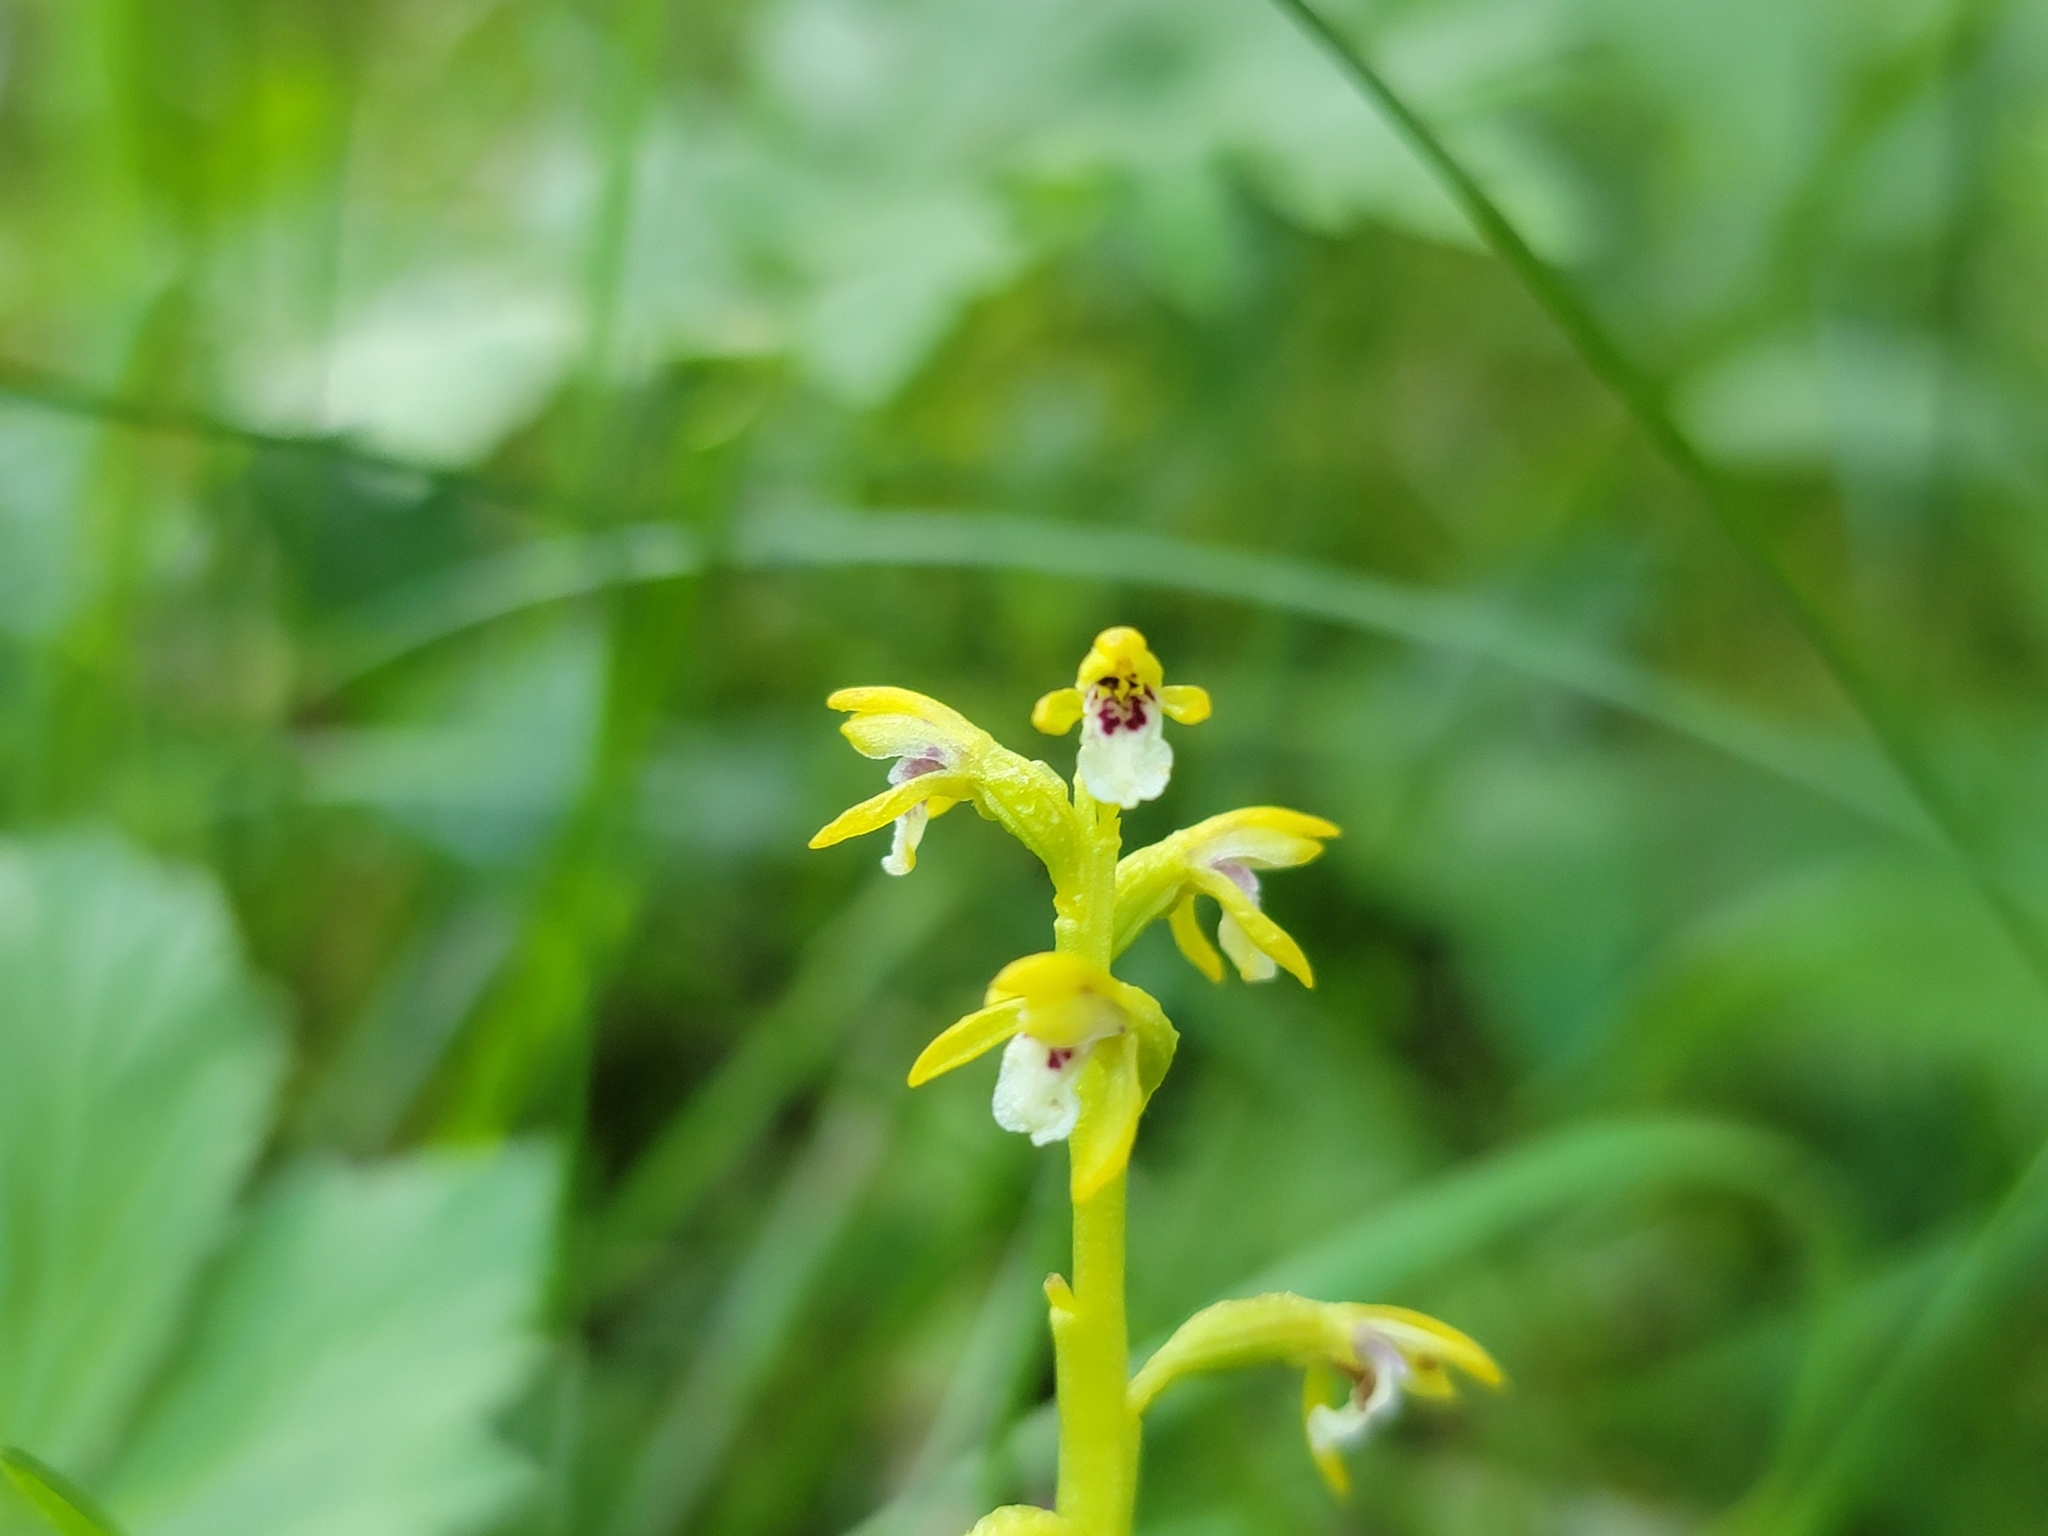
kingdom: Plantae
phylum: Tracheophyta
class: Liliopsida
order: Asparagales
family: Orchidaceae
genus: Corallorhiza
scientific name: Corallorhiza trifida
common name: Yellow coralroot
